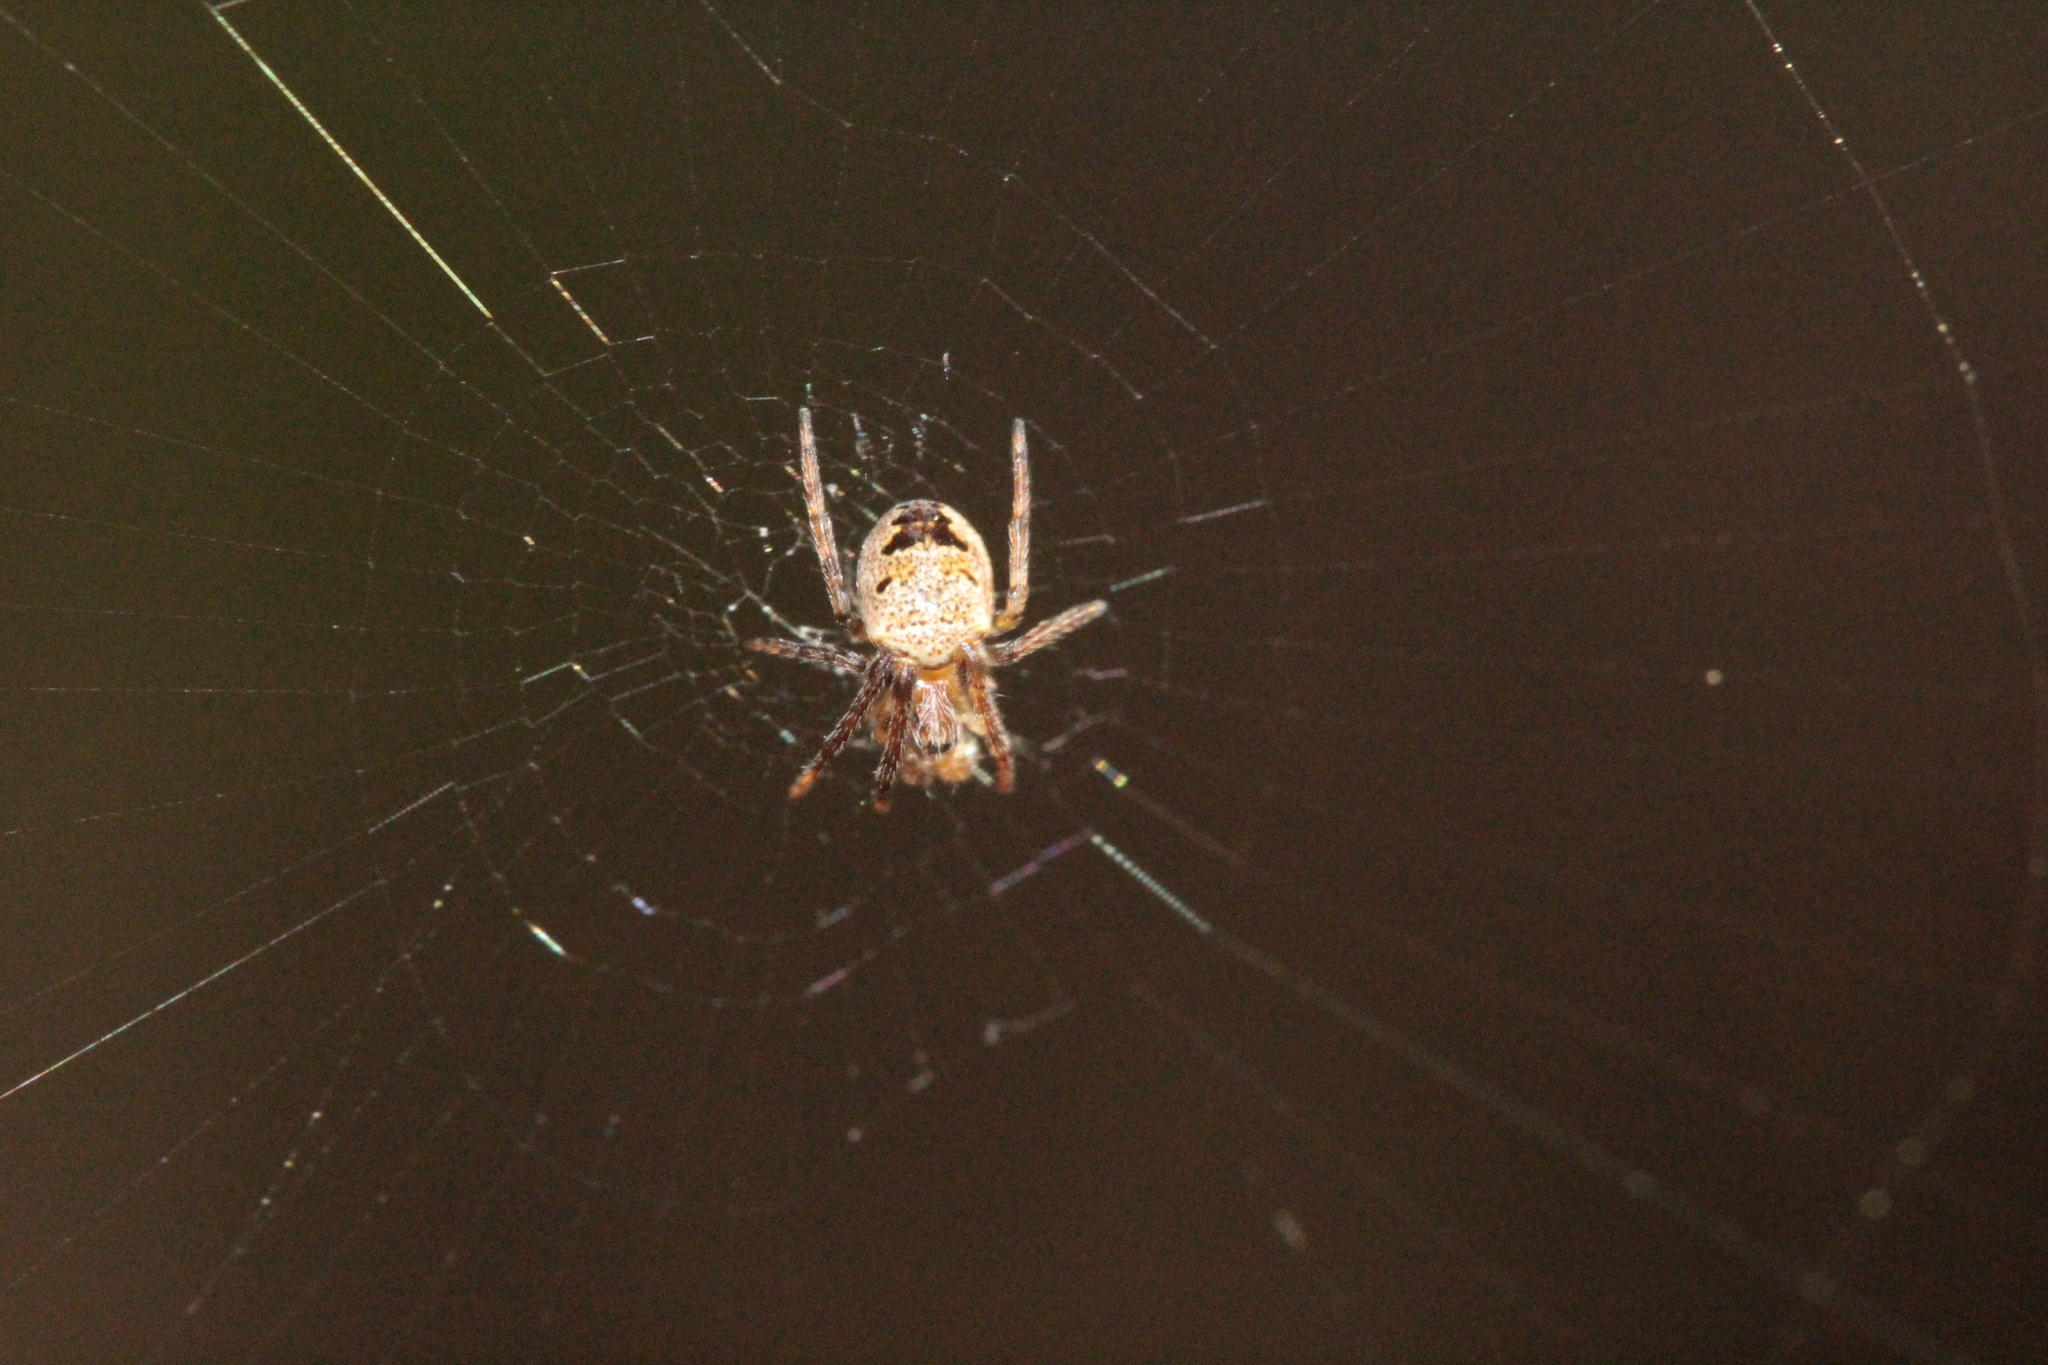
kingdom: Animalia
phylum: Arthropoda
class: Arachnida
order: Araneae
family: Araneidae
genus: Zilla
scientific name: Zilla diodia
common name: Zilla diodia
